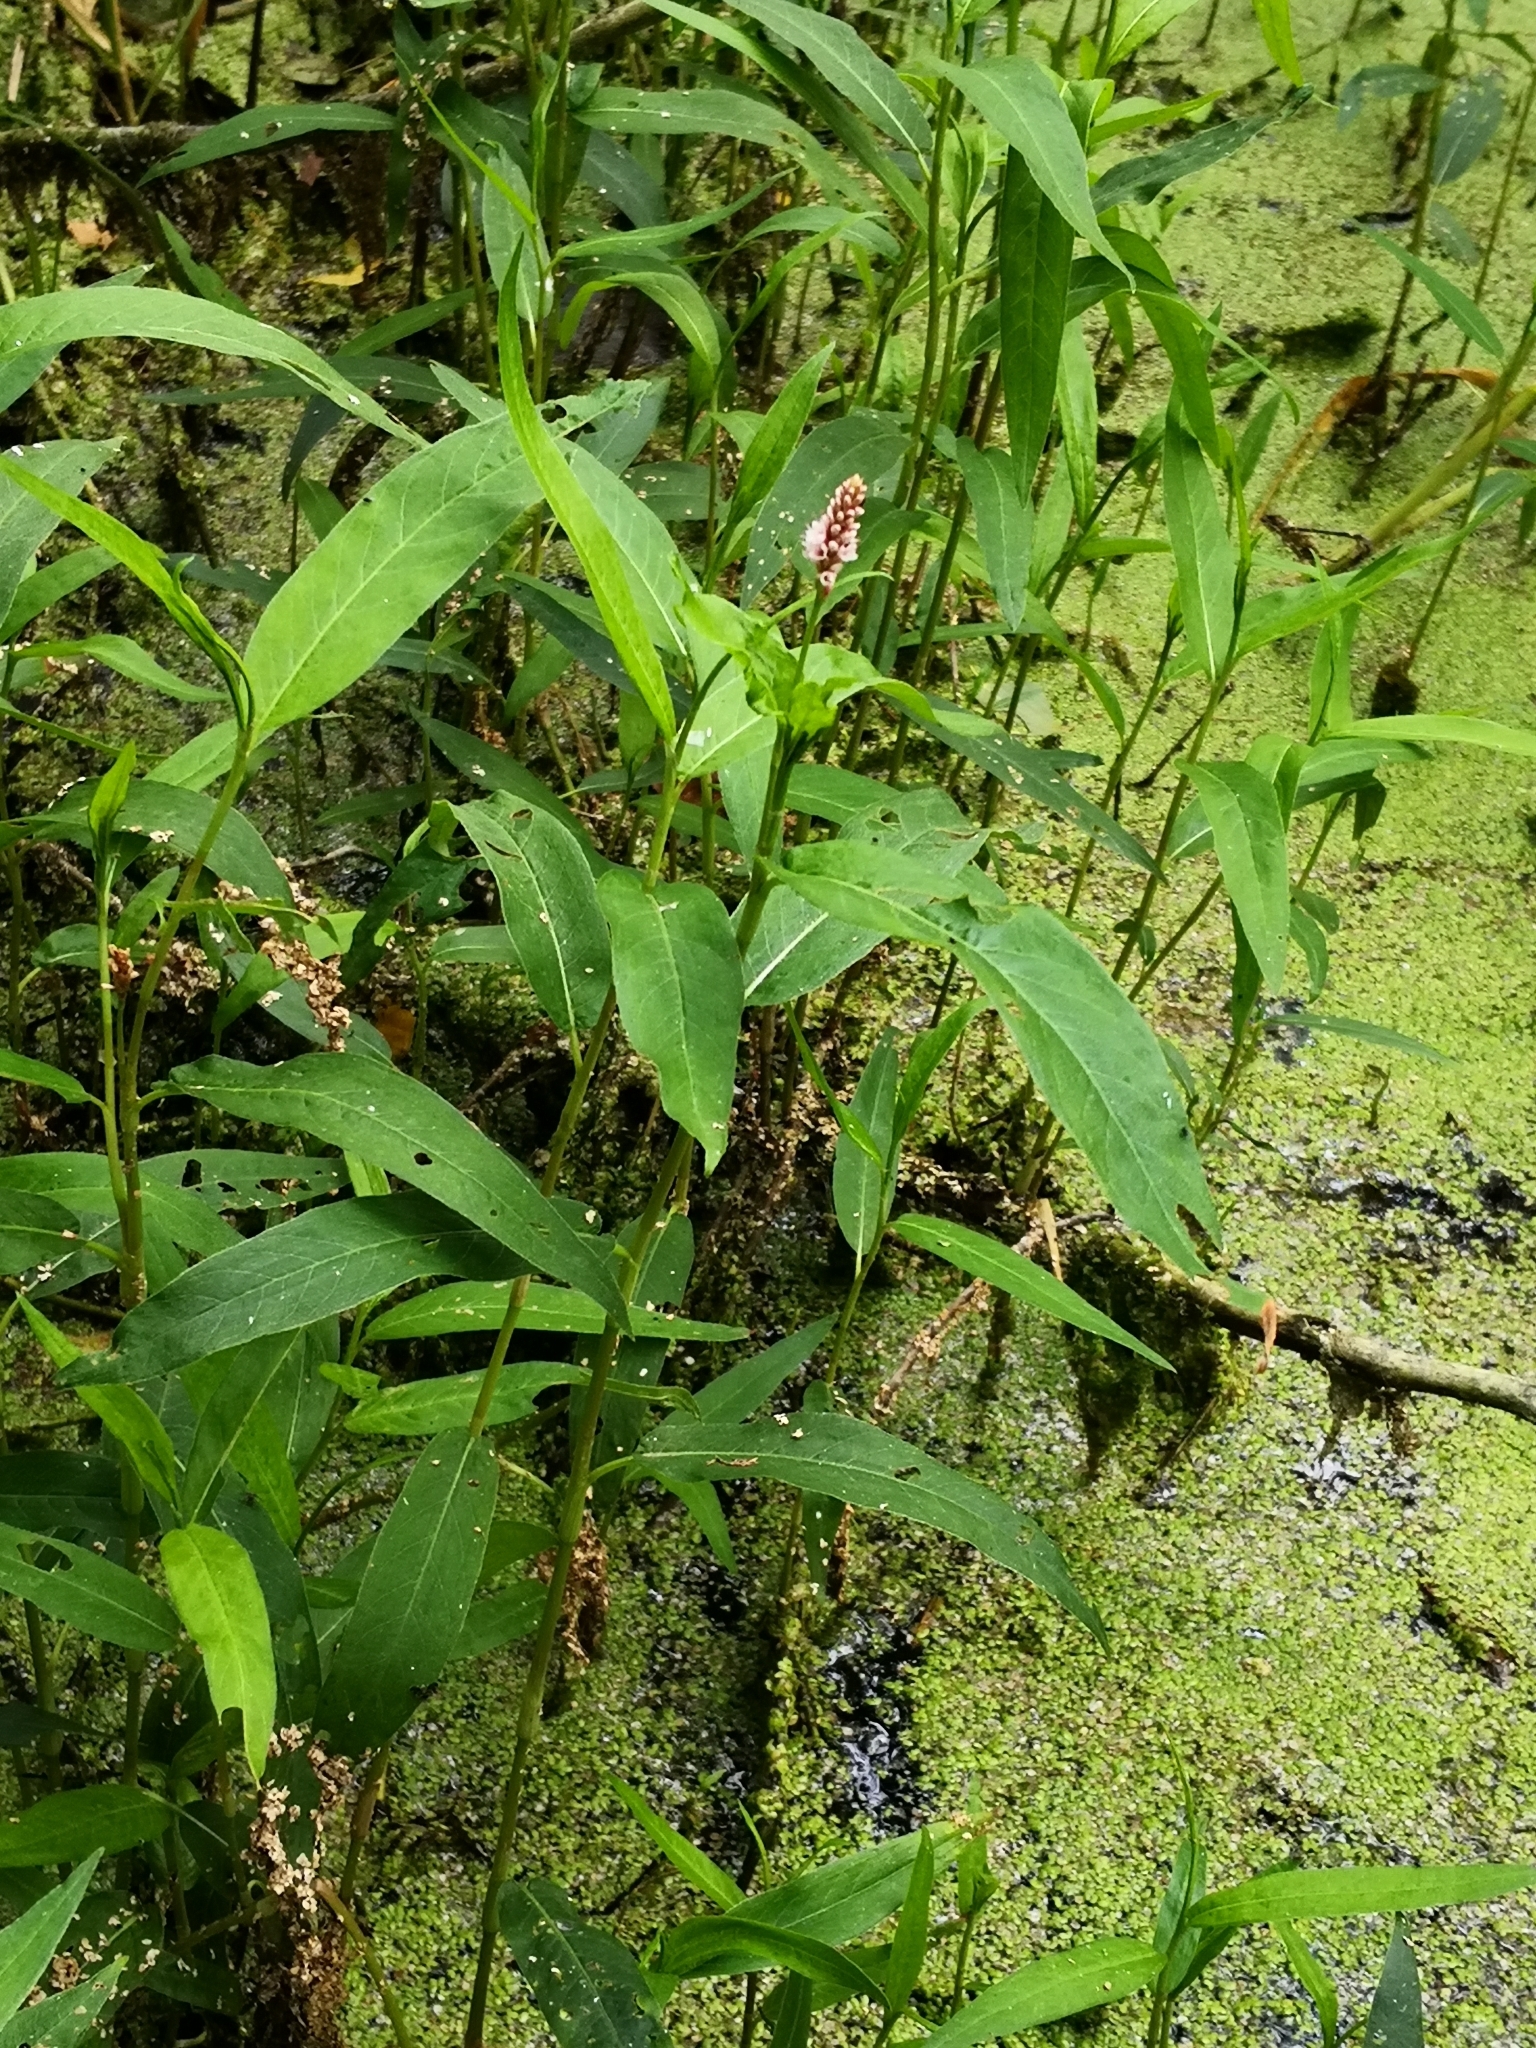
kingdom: Plantae
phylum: Tracheophyta
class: Magnoliopsida
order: Caryophyllales
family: Polygonaceae
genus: Persicaria
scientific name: Persicaria amphibia
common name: Amphibious bistort
